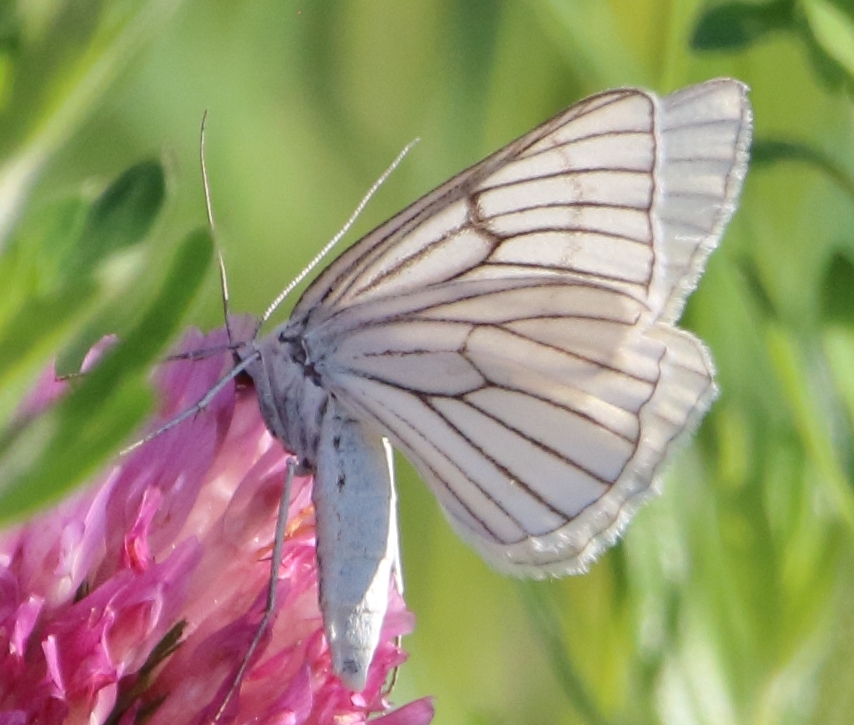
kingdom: Animalia
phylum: Arthropoda
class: Insecta
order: Lepidoptera
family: Geometridae
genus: Siona
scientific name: Siona lineata
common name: Black-veined moth
